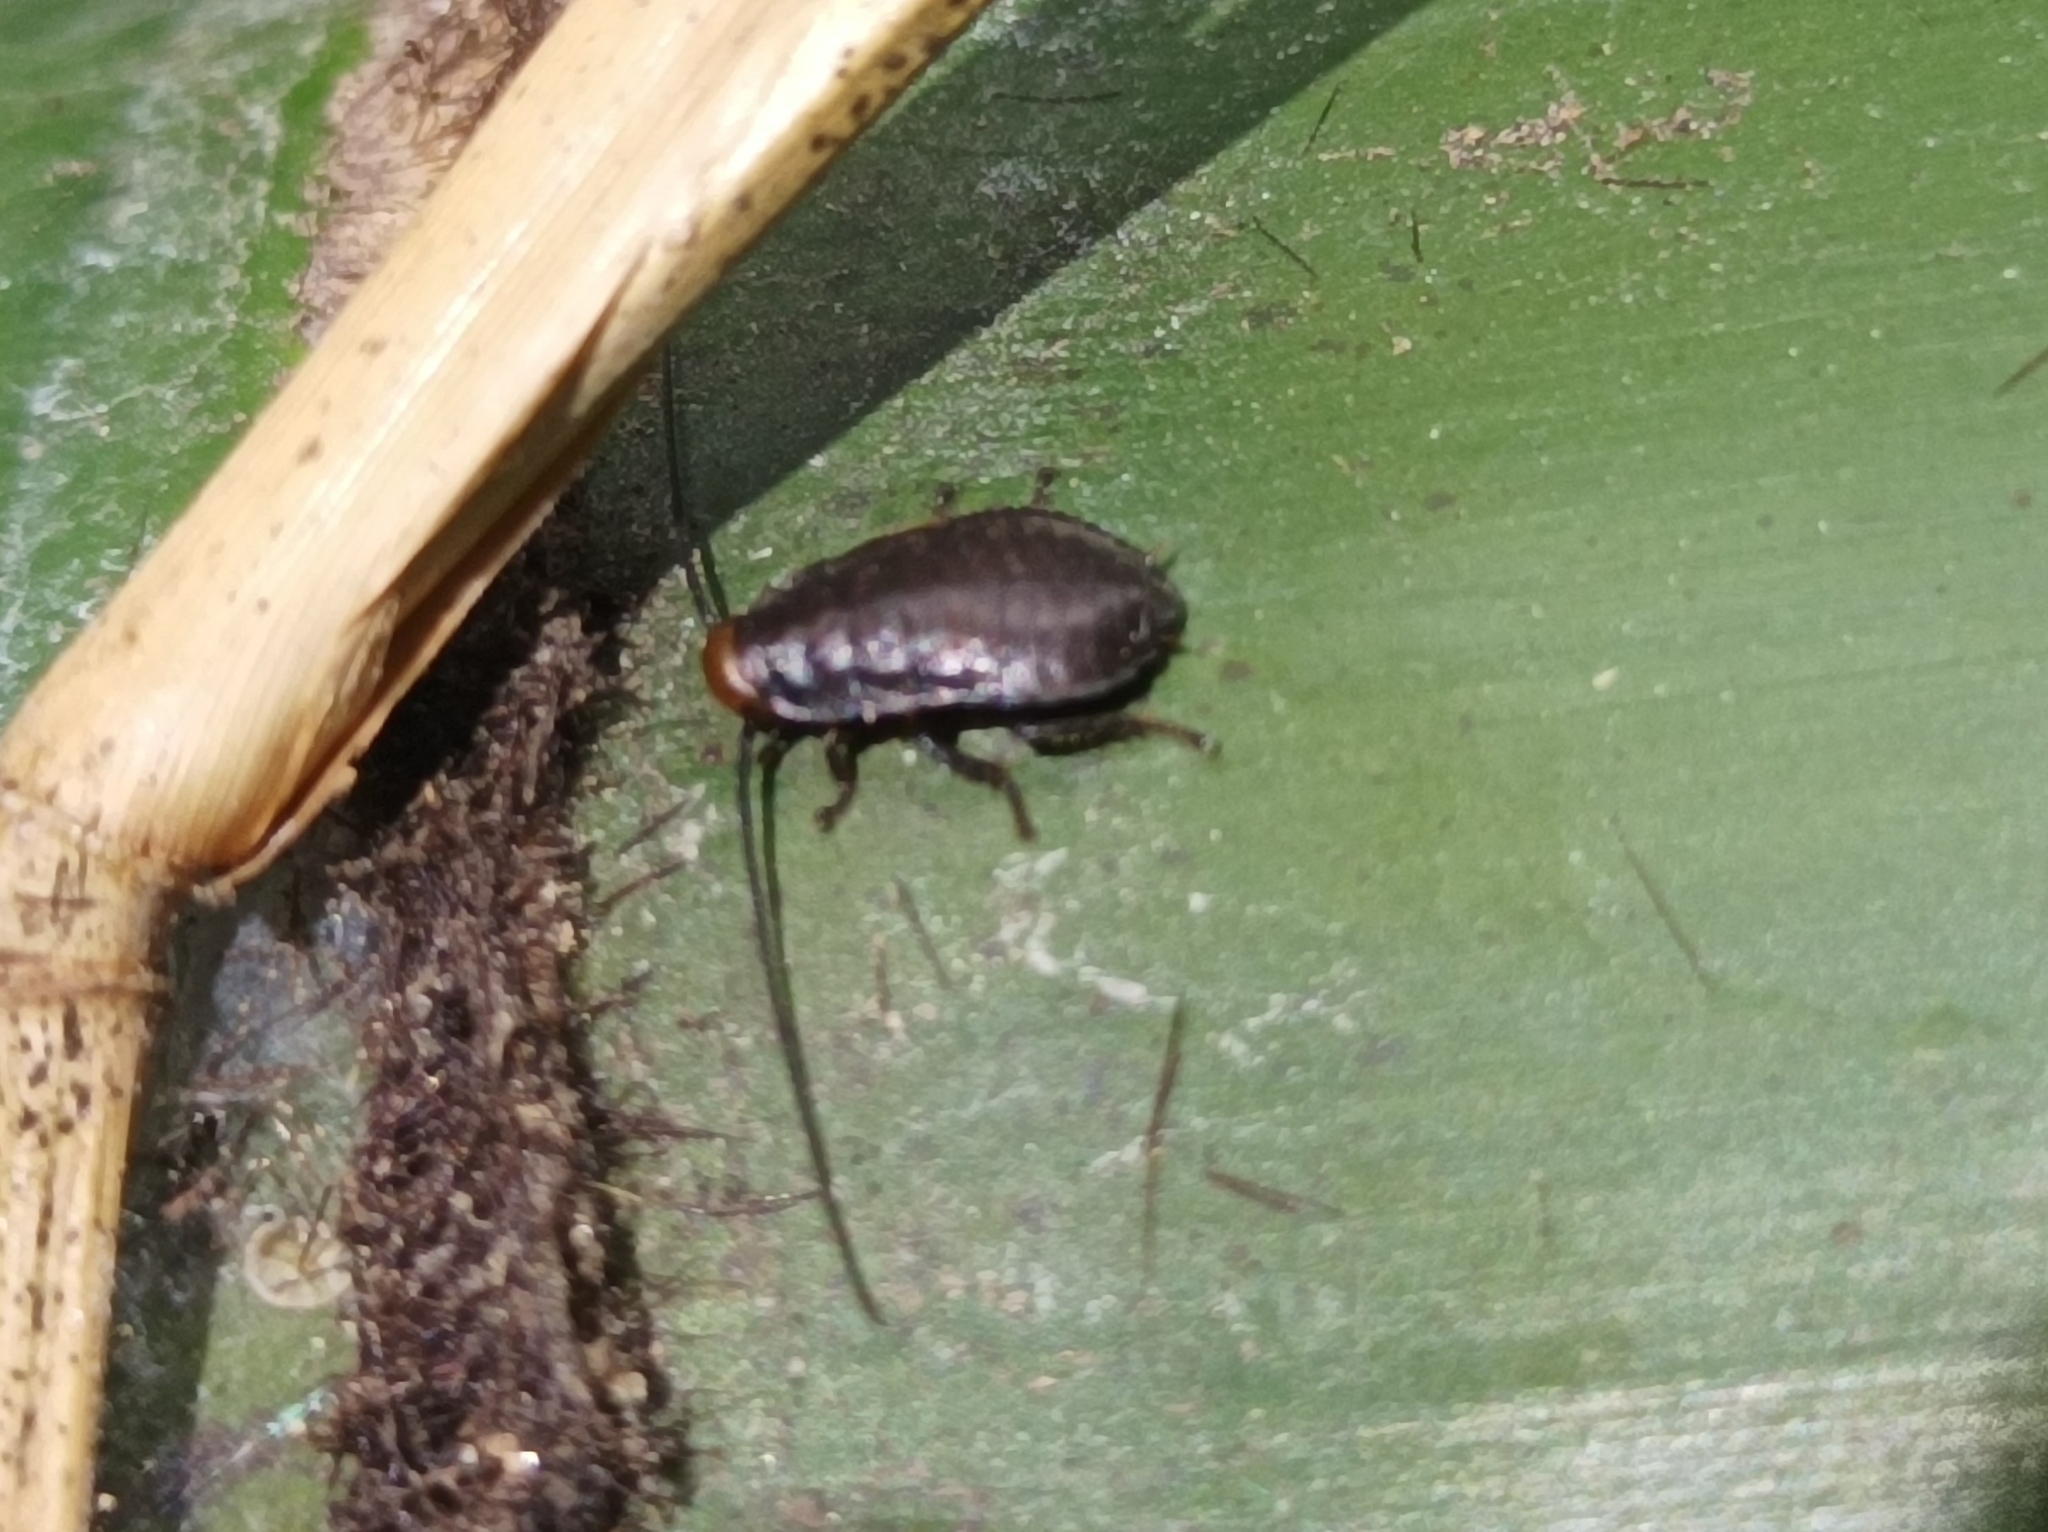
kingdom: Animalia
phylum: Arthropoda
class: Insecta
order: Blattodea
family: Blaberidae
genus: Diploptera
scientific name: Diploptera punctata
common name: Pacific beetle cockroach
